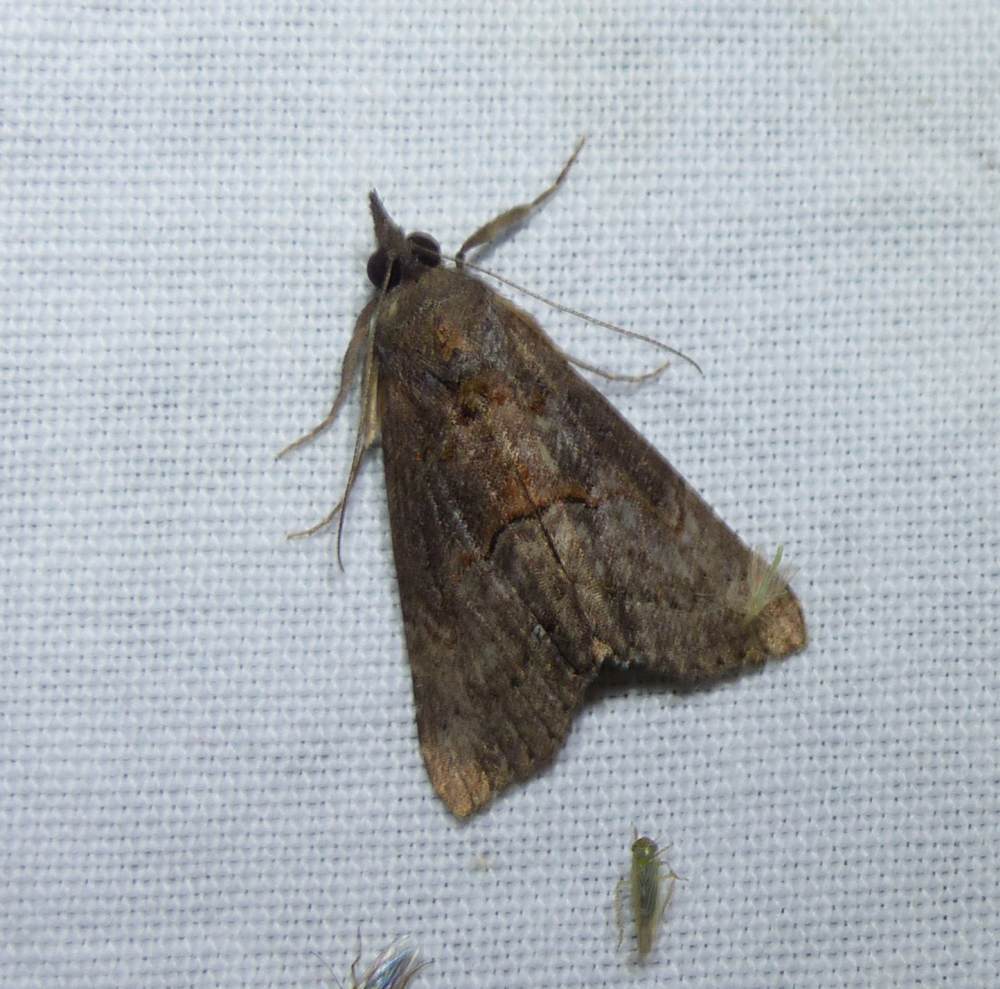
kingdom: Animalia
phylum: Arthropoda
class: Insecta
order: Lepidoptera
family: Erebidae
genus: Hypena
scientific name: Hypena scabra
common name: Green cloverworm
